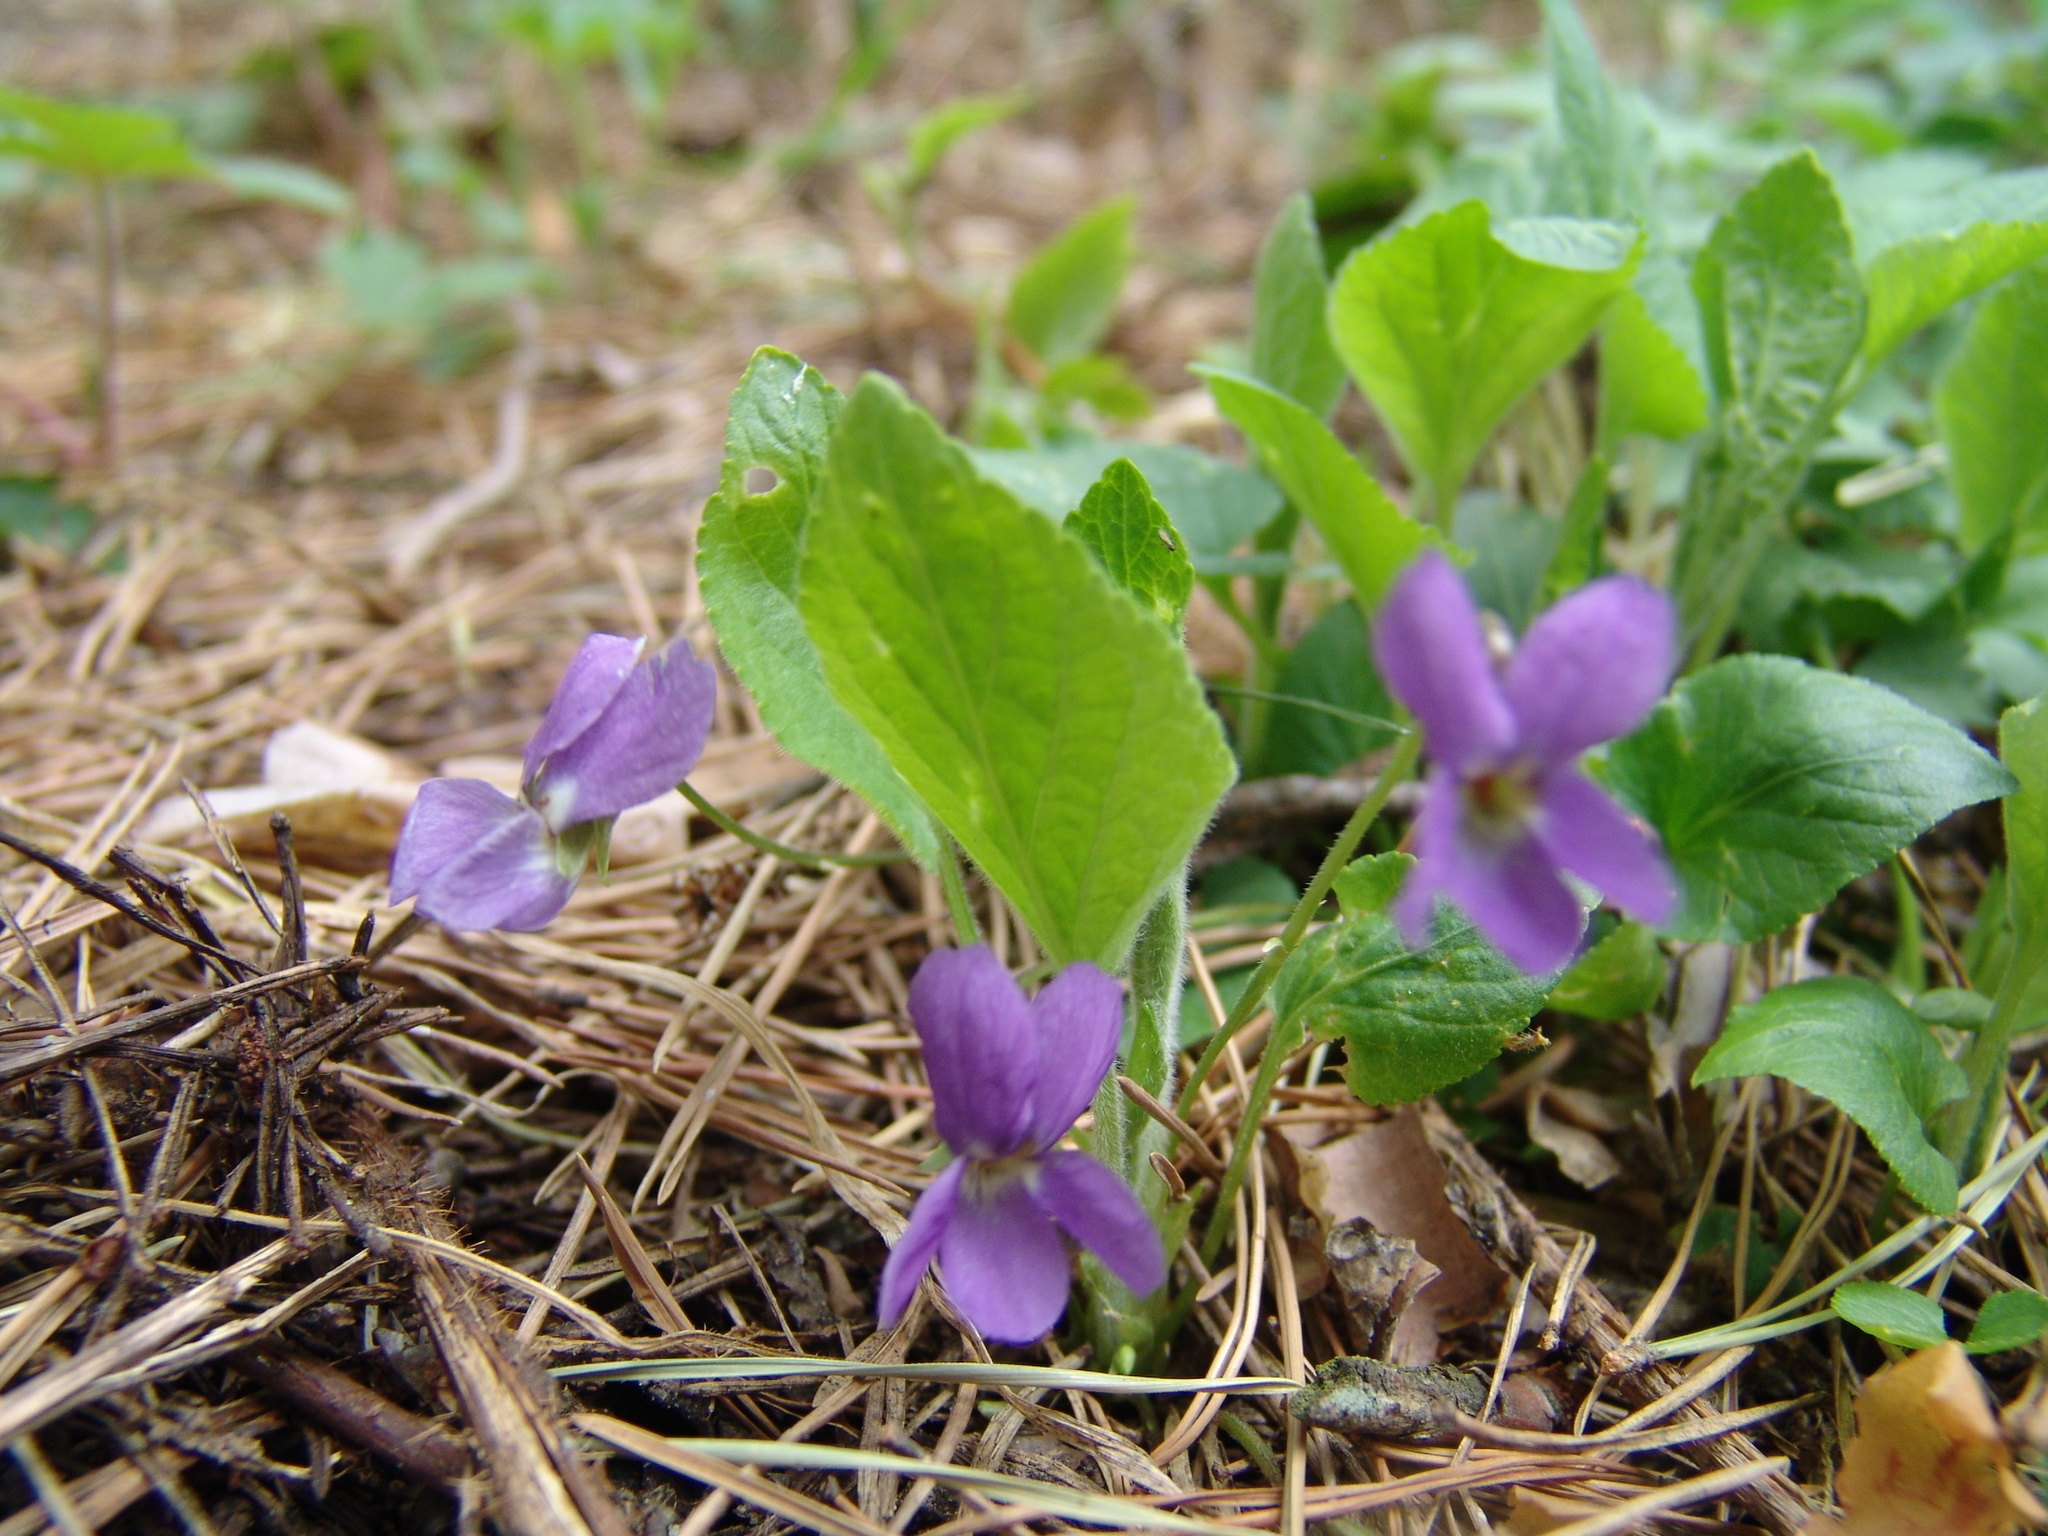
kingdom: Plantae
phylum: Tracheophyta
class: Magnoliopsida
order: Malpighiales
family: Violaceae
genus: Viola
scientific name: Viola hirta
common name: Hairy violet
